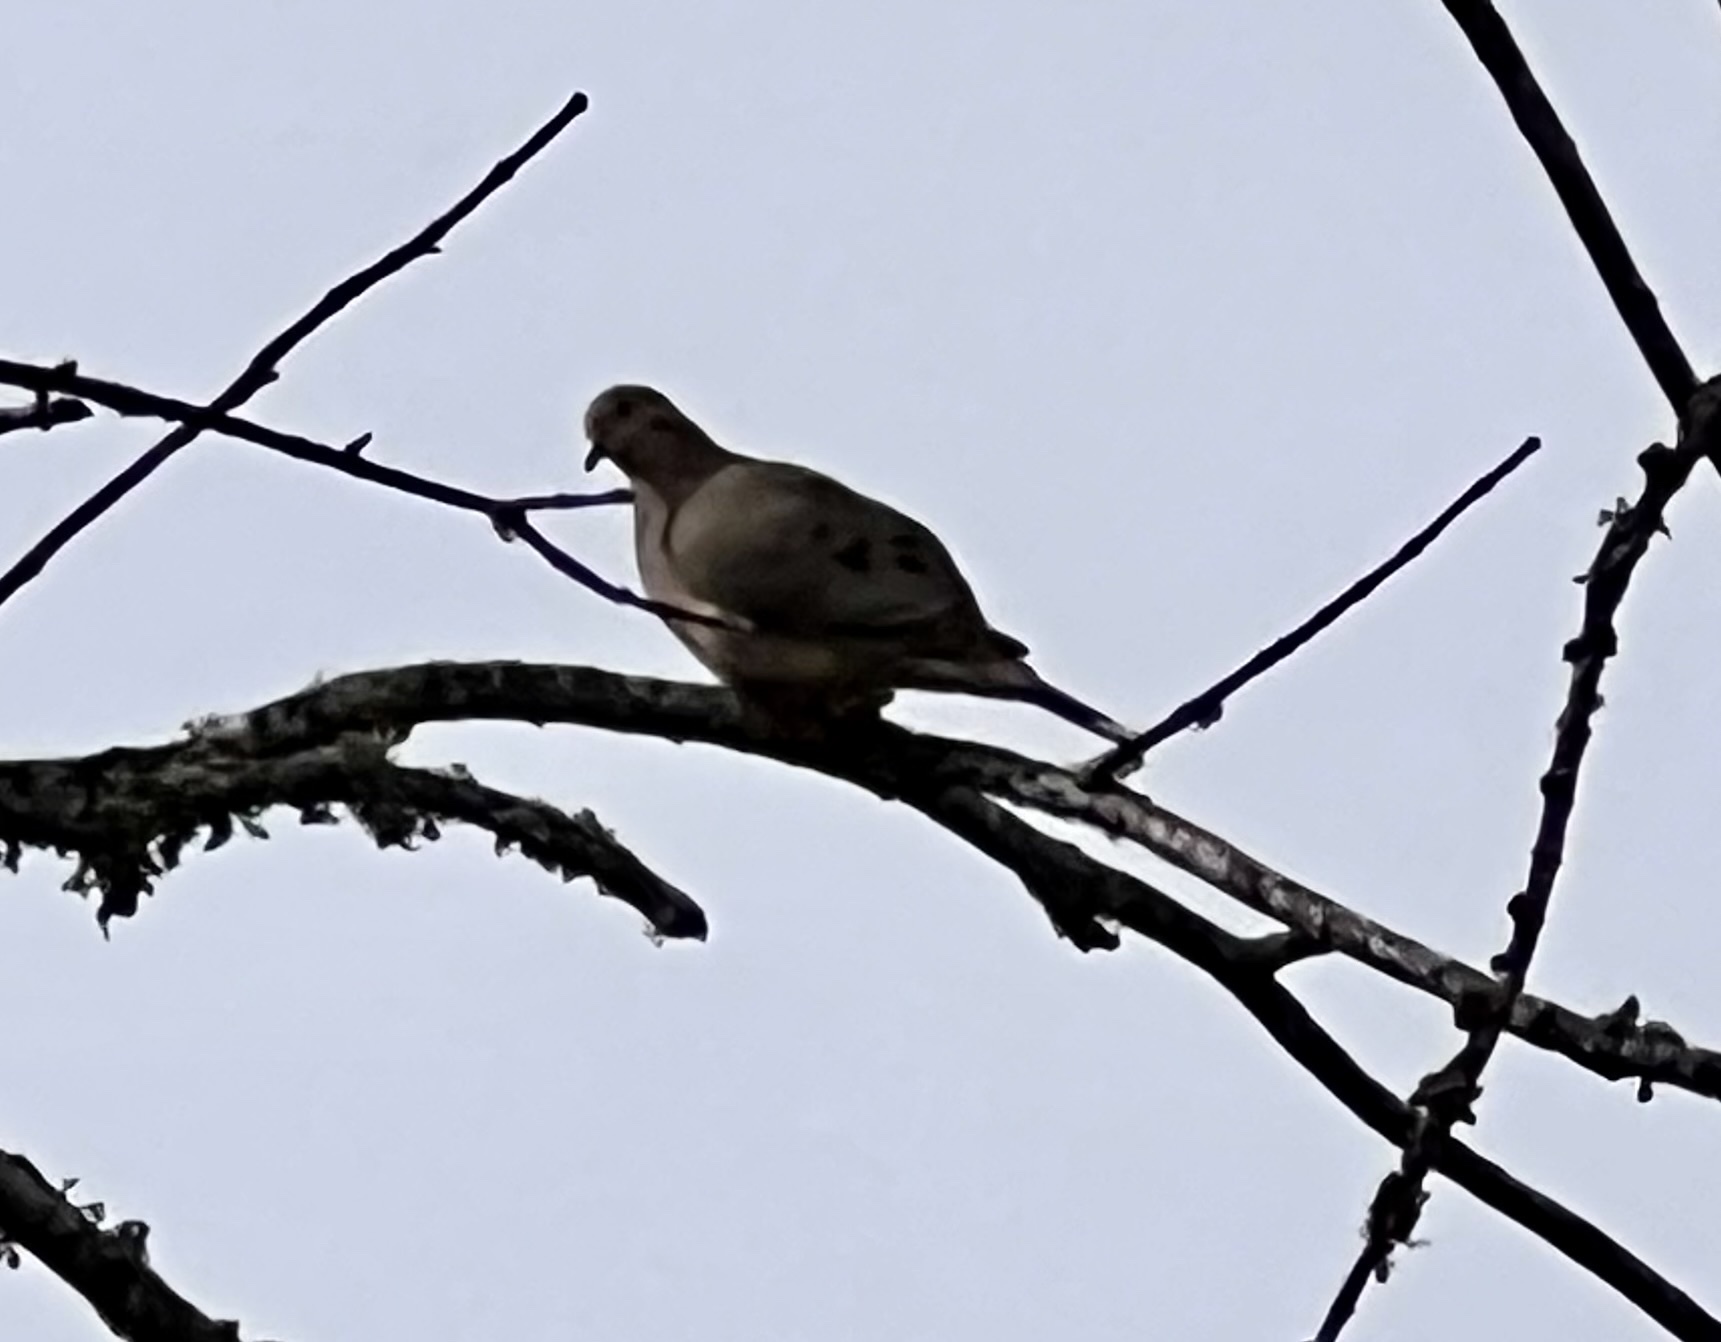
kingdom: Animalia
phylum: Chordata
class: Aves
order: Columbiformes
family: Columbidae
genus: Zenaida
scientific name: Zenaida macroura
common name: Mourning dove
